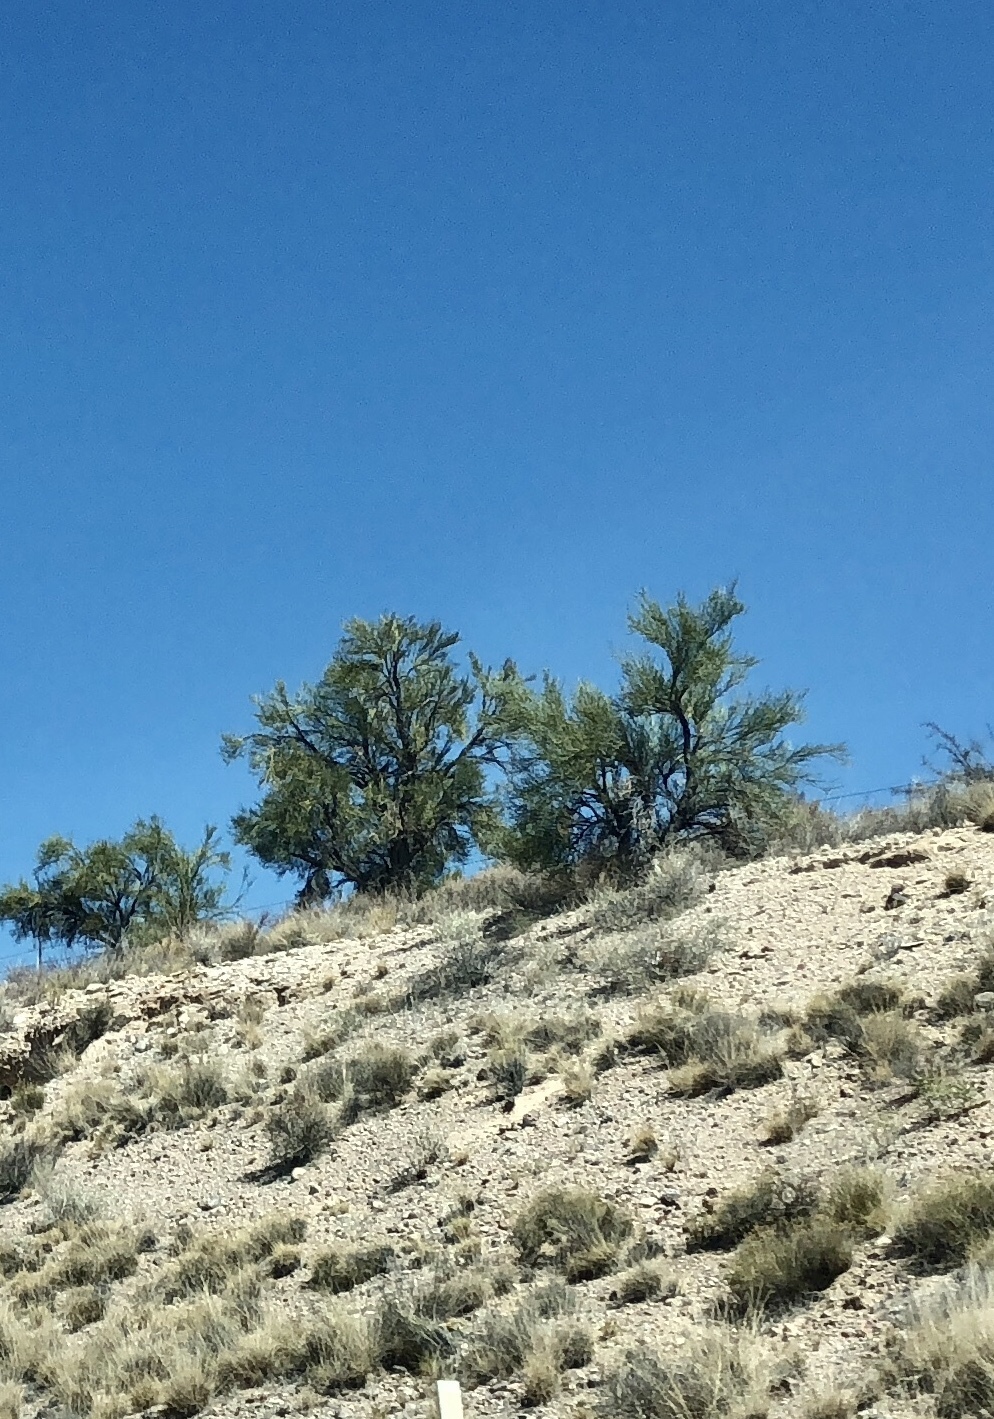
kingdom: Plantae
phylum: Tracheophyta
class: Magnoliopsida
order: Celastrales
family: Celastraceae
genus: Canotia
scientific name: Canotia holacantha
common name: Crucifixion thorns
